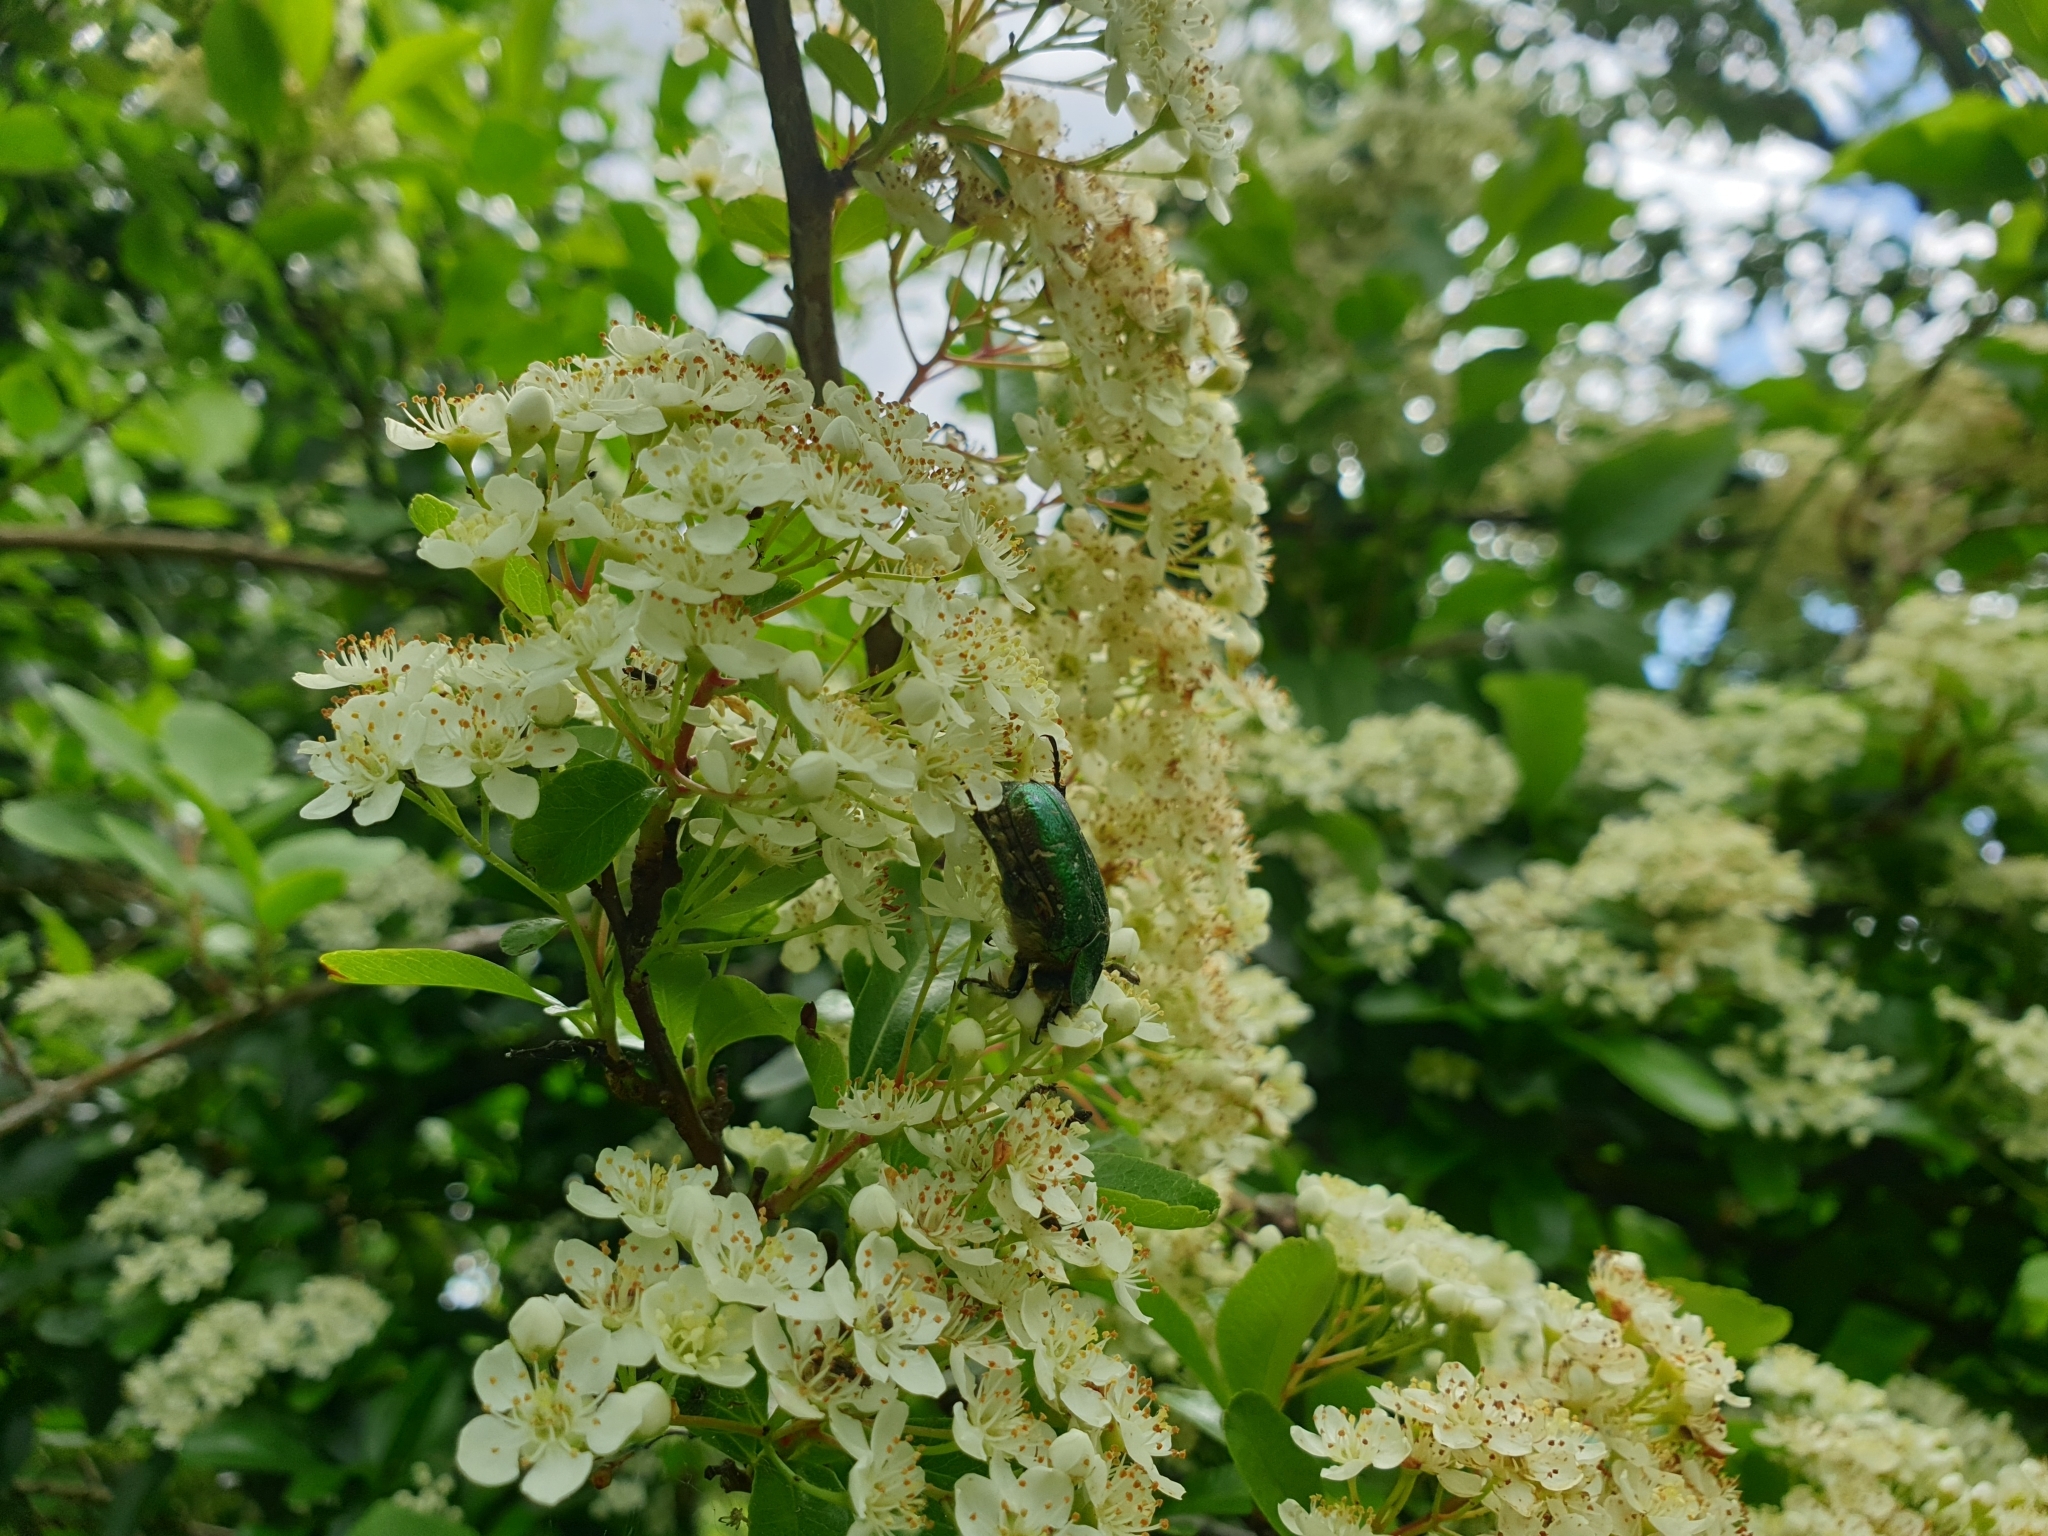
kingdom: Animalia
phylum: Arthropoda
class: Insecta
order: Coleoptera
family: Scarabaeidae
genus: Cetonia
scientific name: Cetonia aurata
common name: Rose chafer
